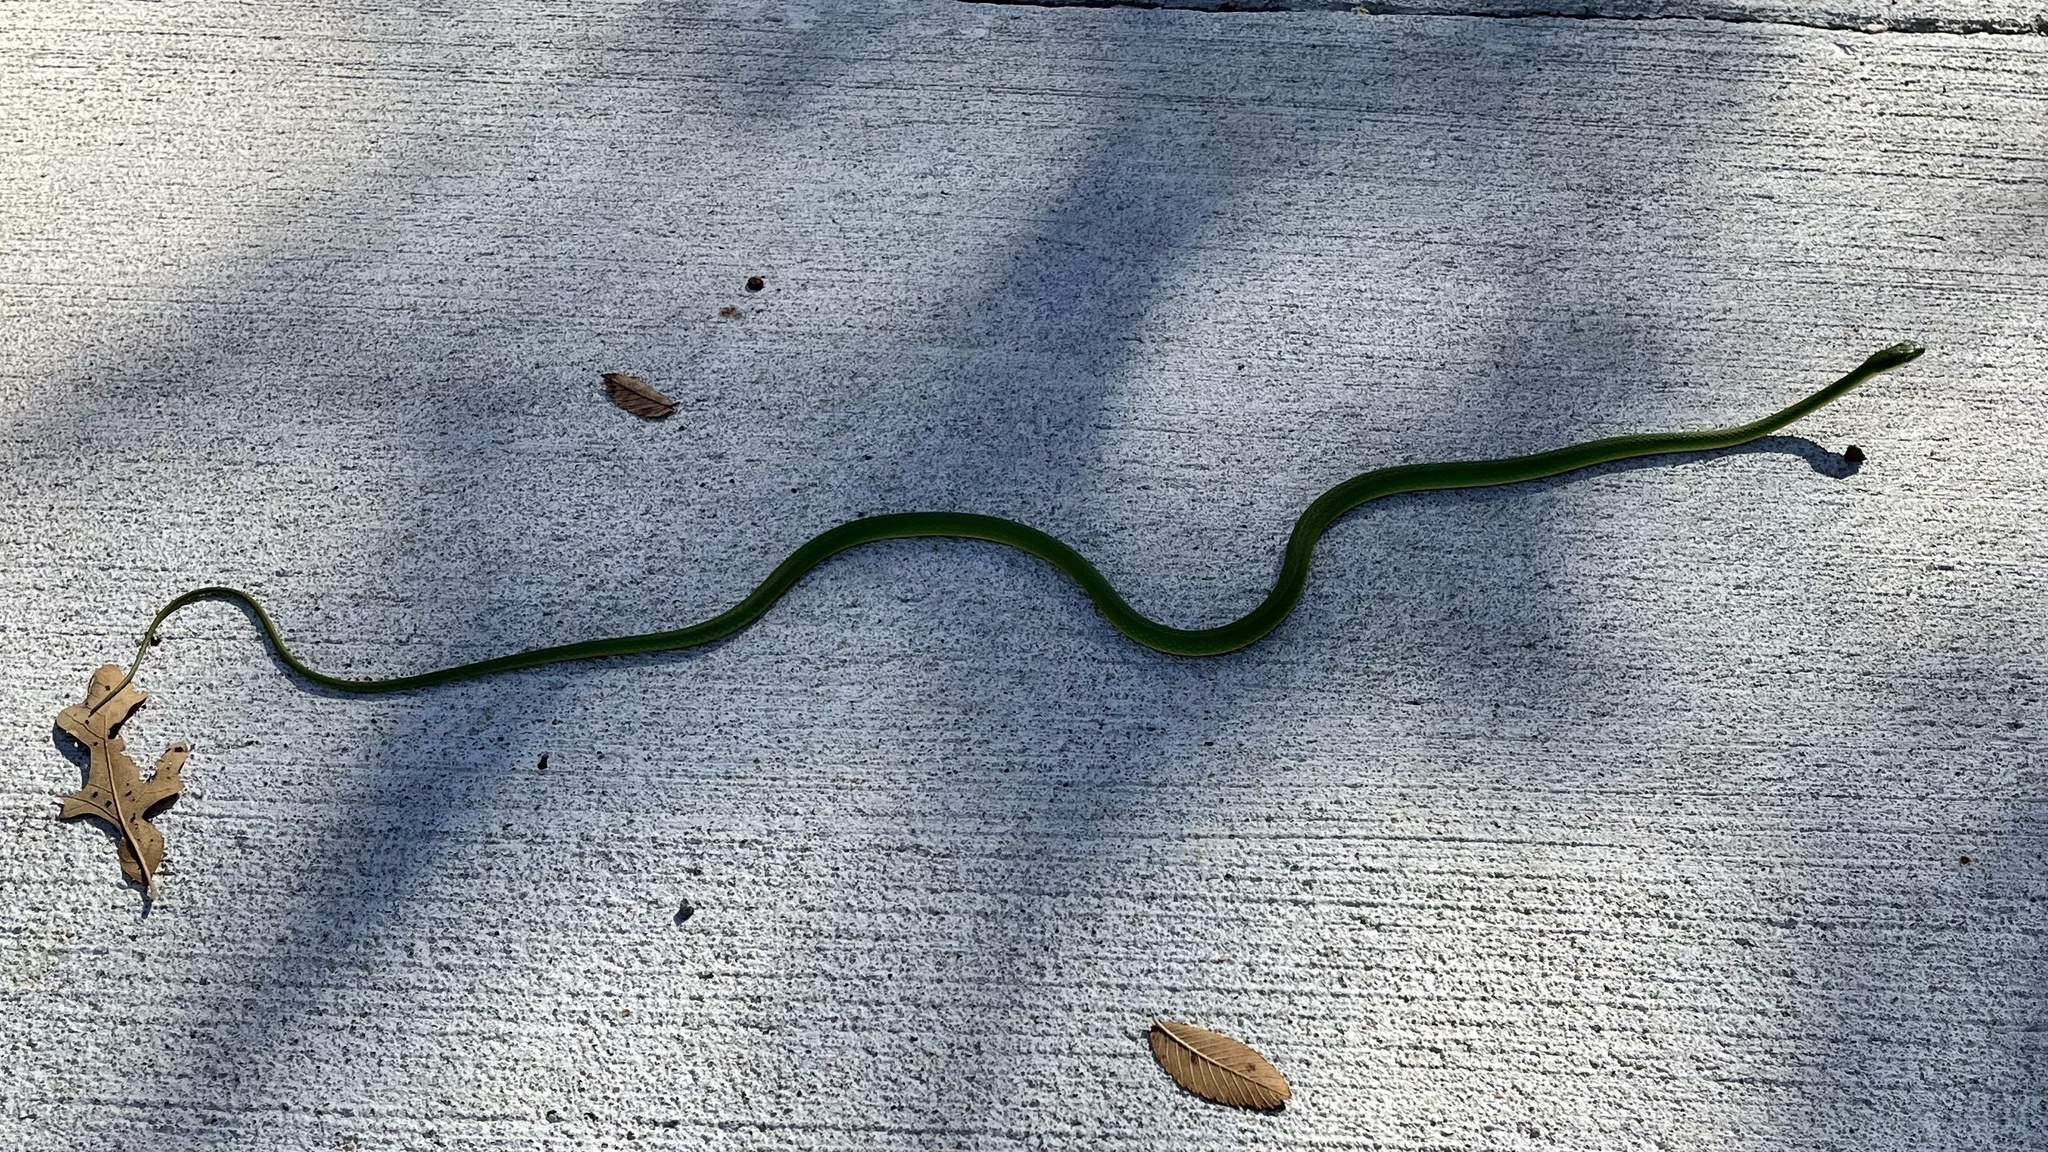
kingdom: Animalia
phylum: Chordata
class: Squamata
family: Colubridae
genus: Opheodrys
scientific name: Opheodrys aestivus
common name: Rough greensnake
